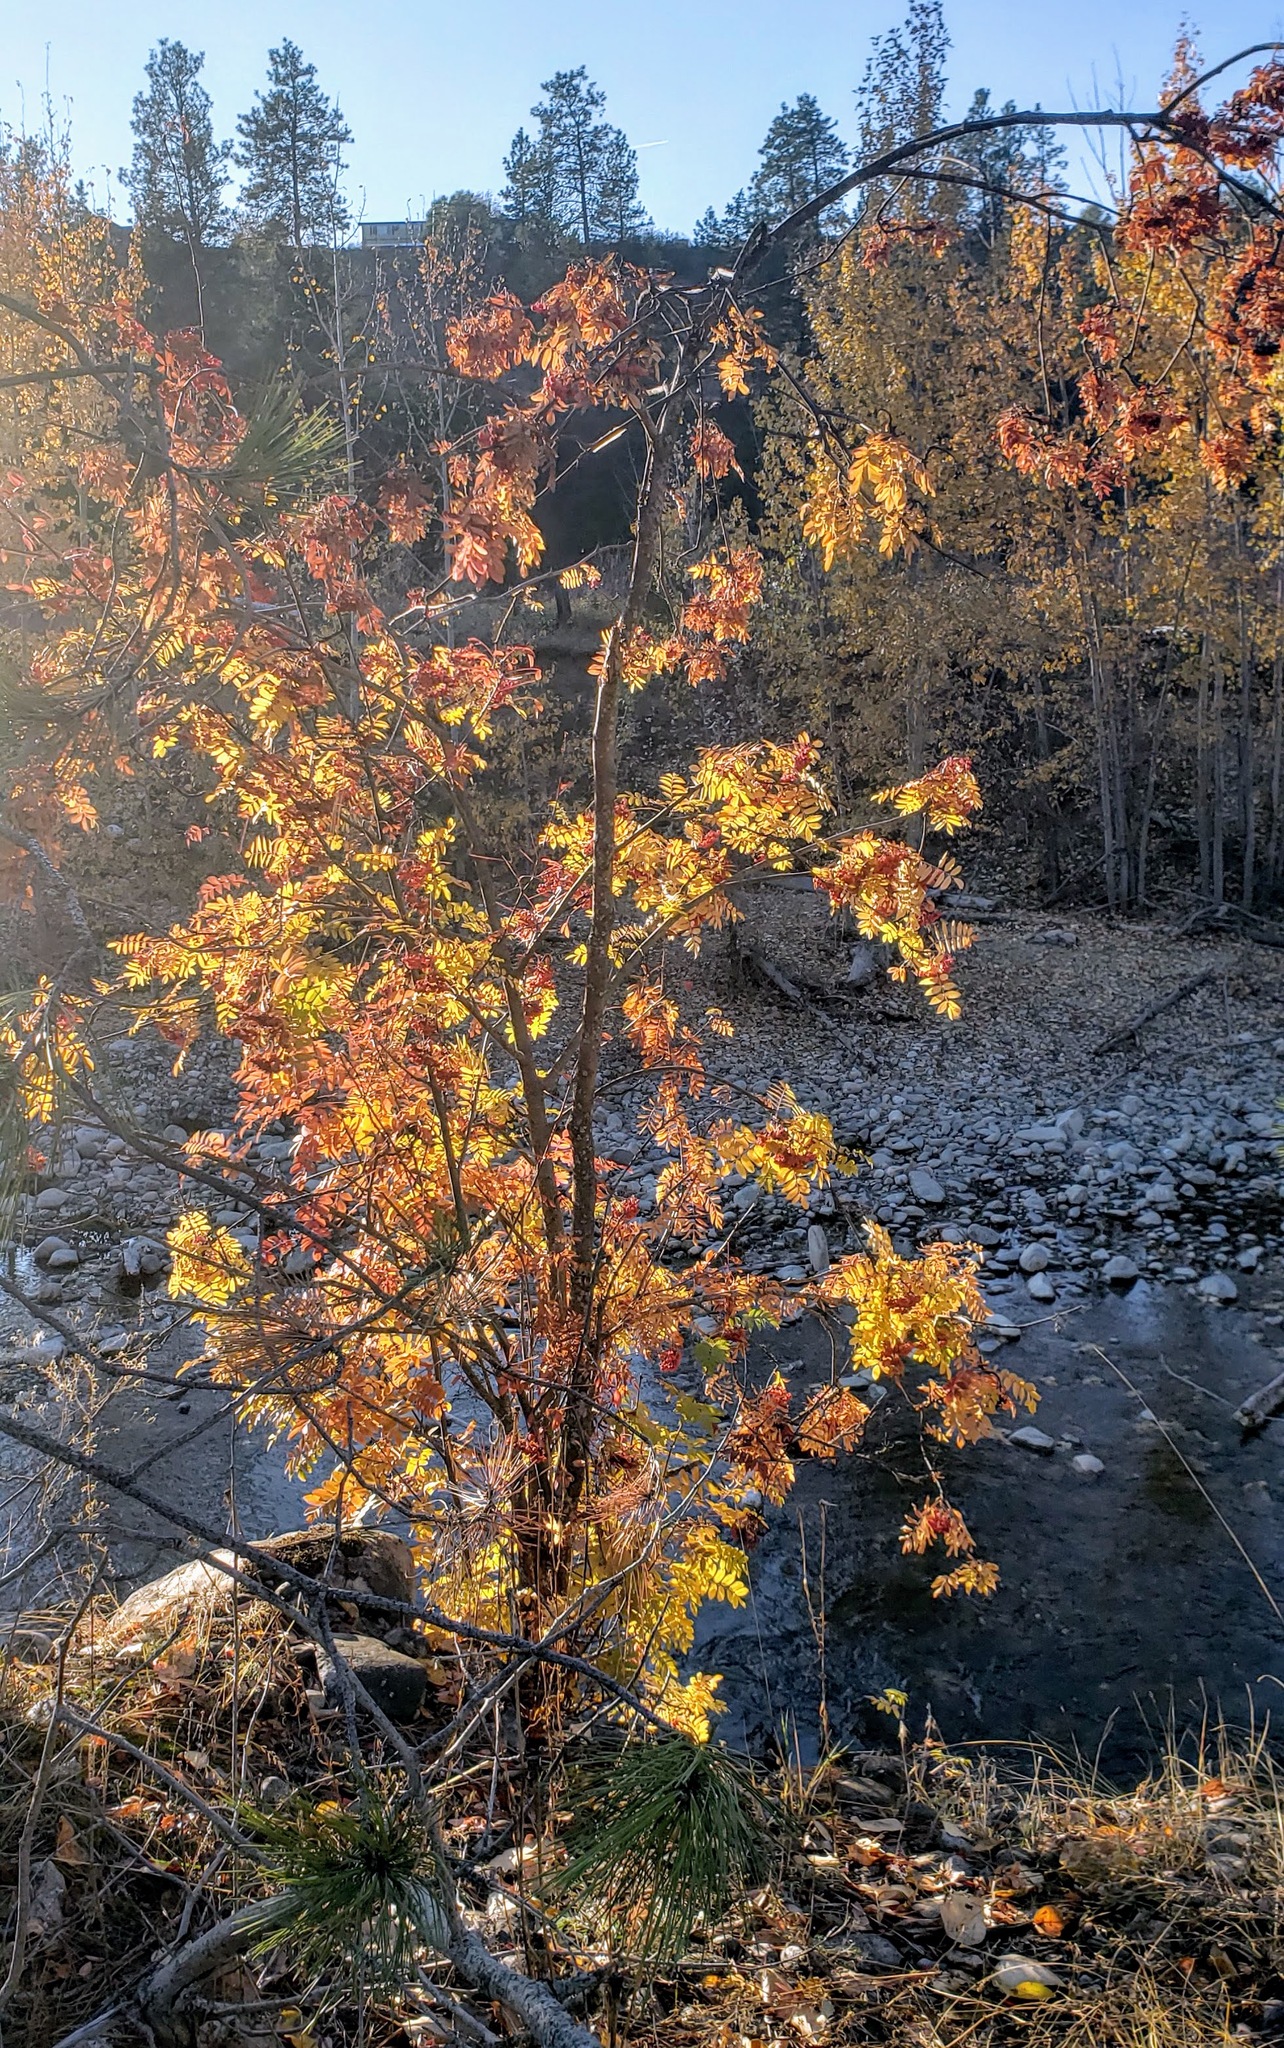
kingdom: Plantae
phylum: Tracheophyta
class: Magnoliopsida
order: Rosales
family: Rosaceae
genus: Sorbus
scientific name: Sorbus aucuparia
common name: Rowan
